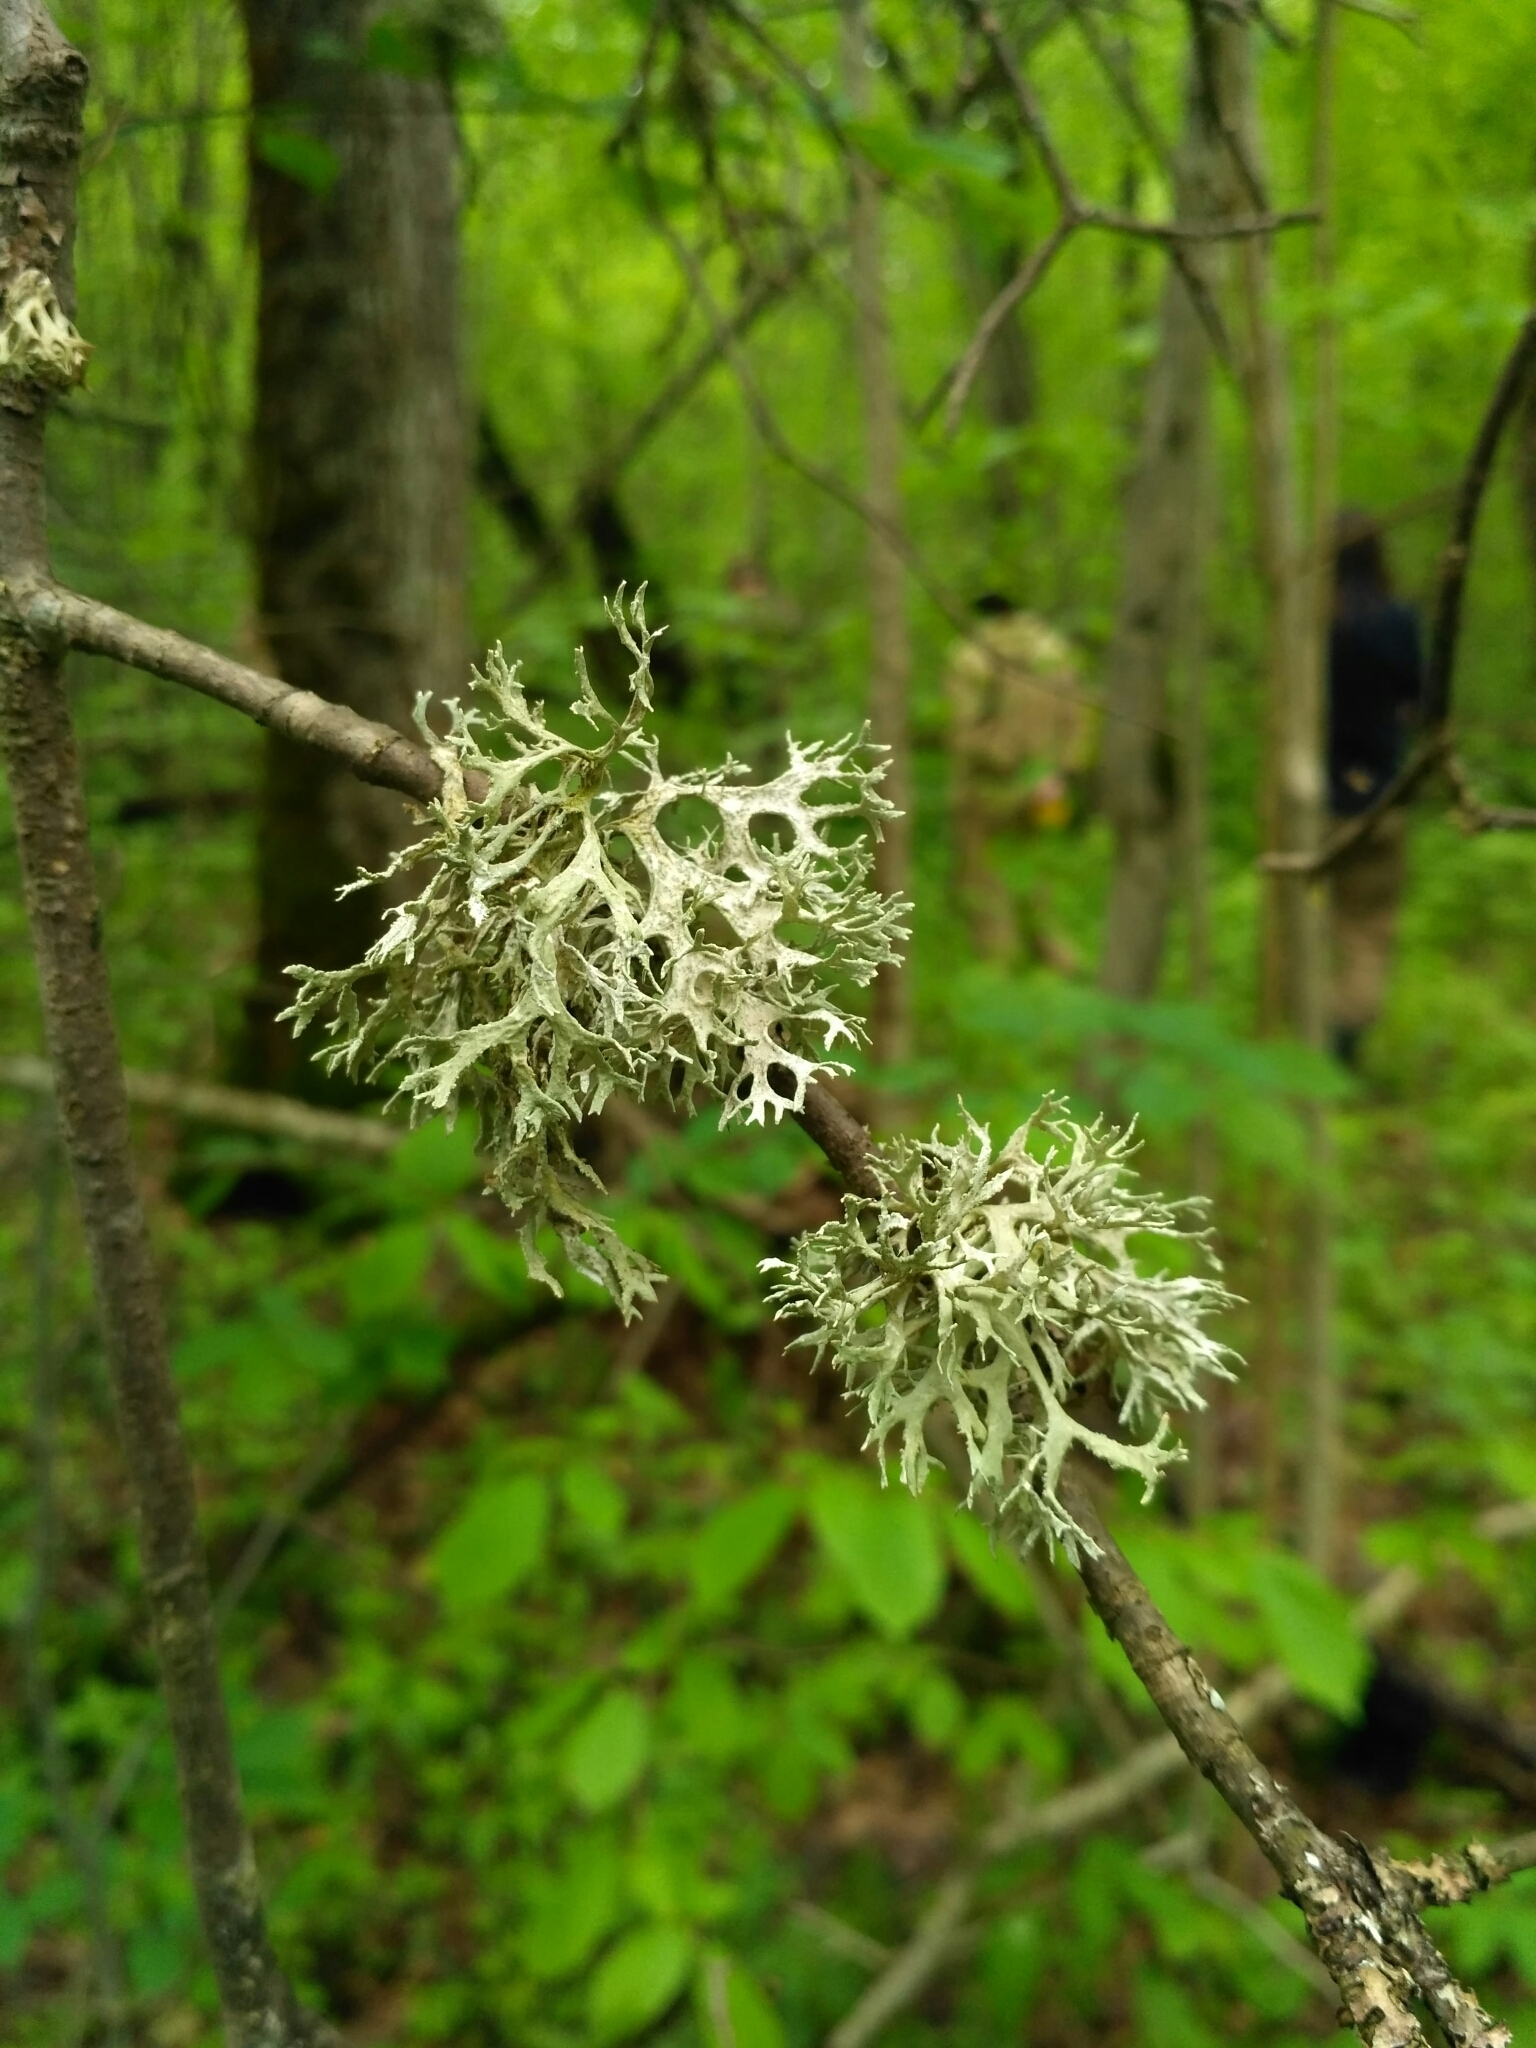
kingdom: Fungi
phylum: Ascomycota
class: Lecanoromycetes
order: Lecanorales
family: Parmeliaceae
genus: Evernia
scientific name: Evernia prunastri
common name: Oak moss
